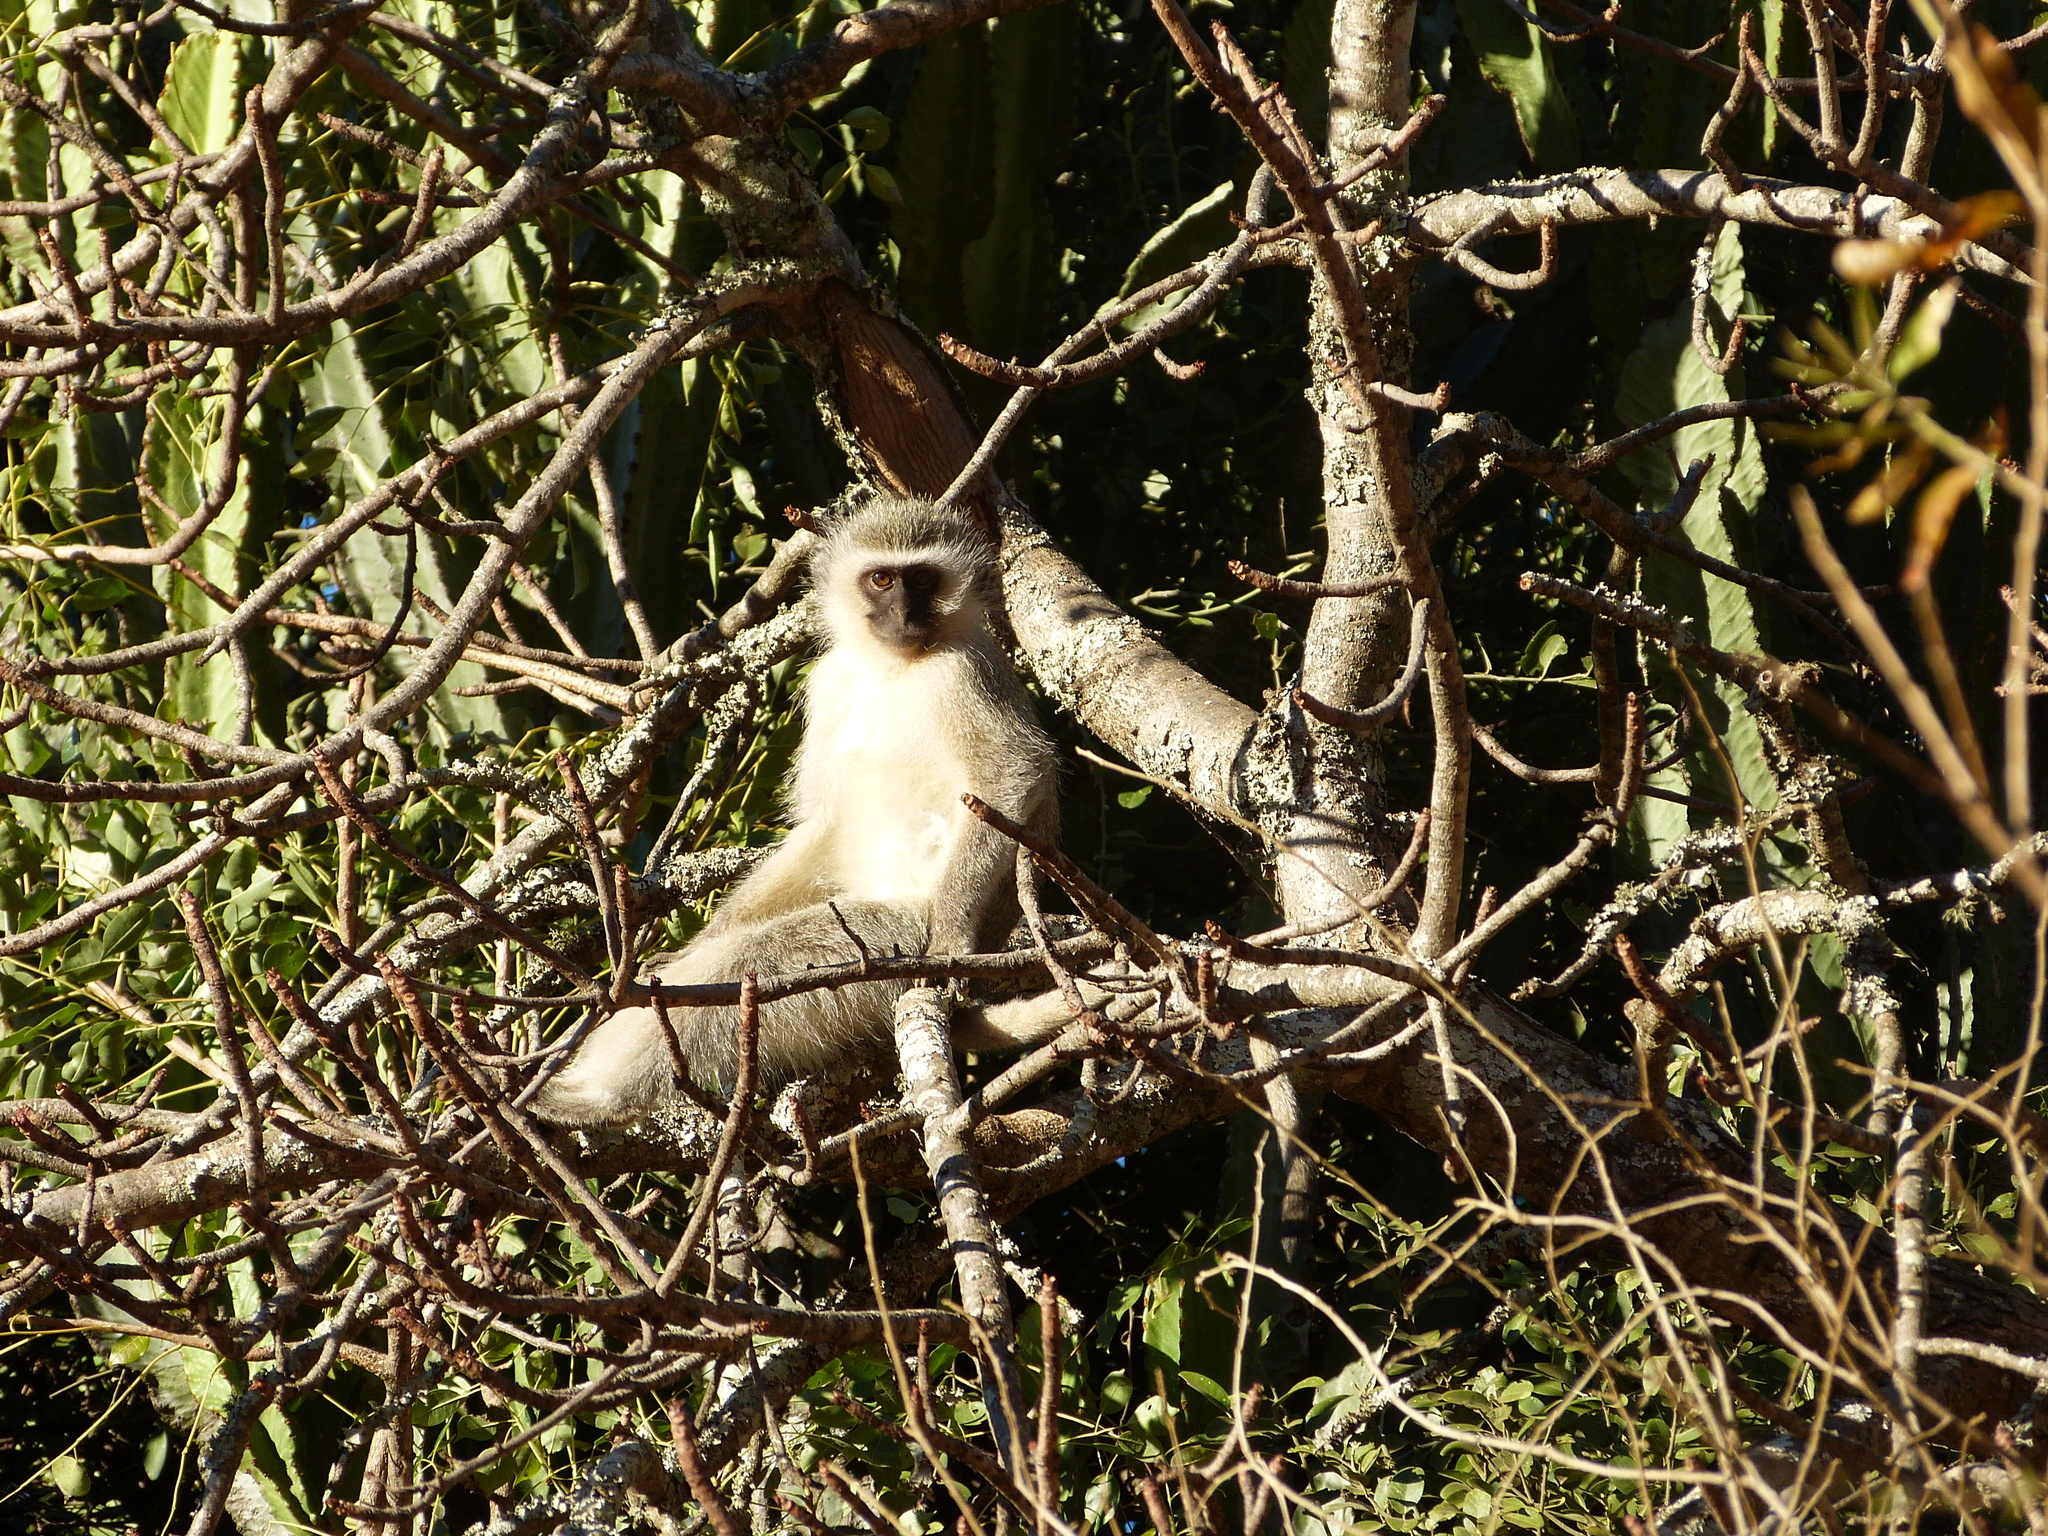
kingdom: Animalia
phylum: Chordata
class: Mammalia
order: Primates
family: Cercopithecidae
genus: Chlorocebus
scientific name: Chlorocebus pygerythrus
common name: Vervet monkey
